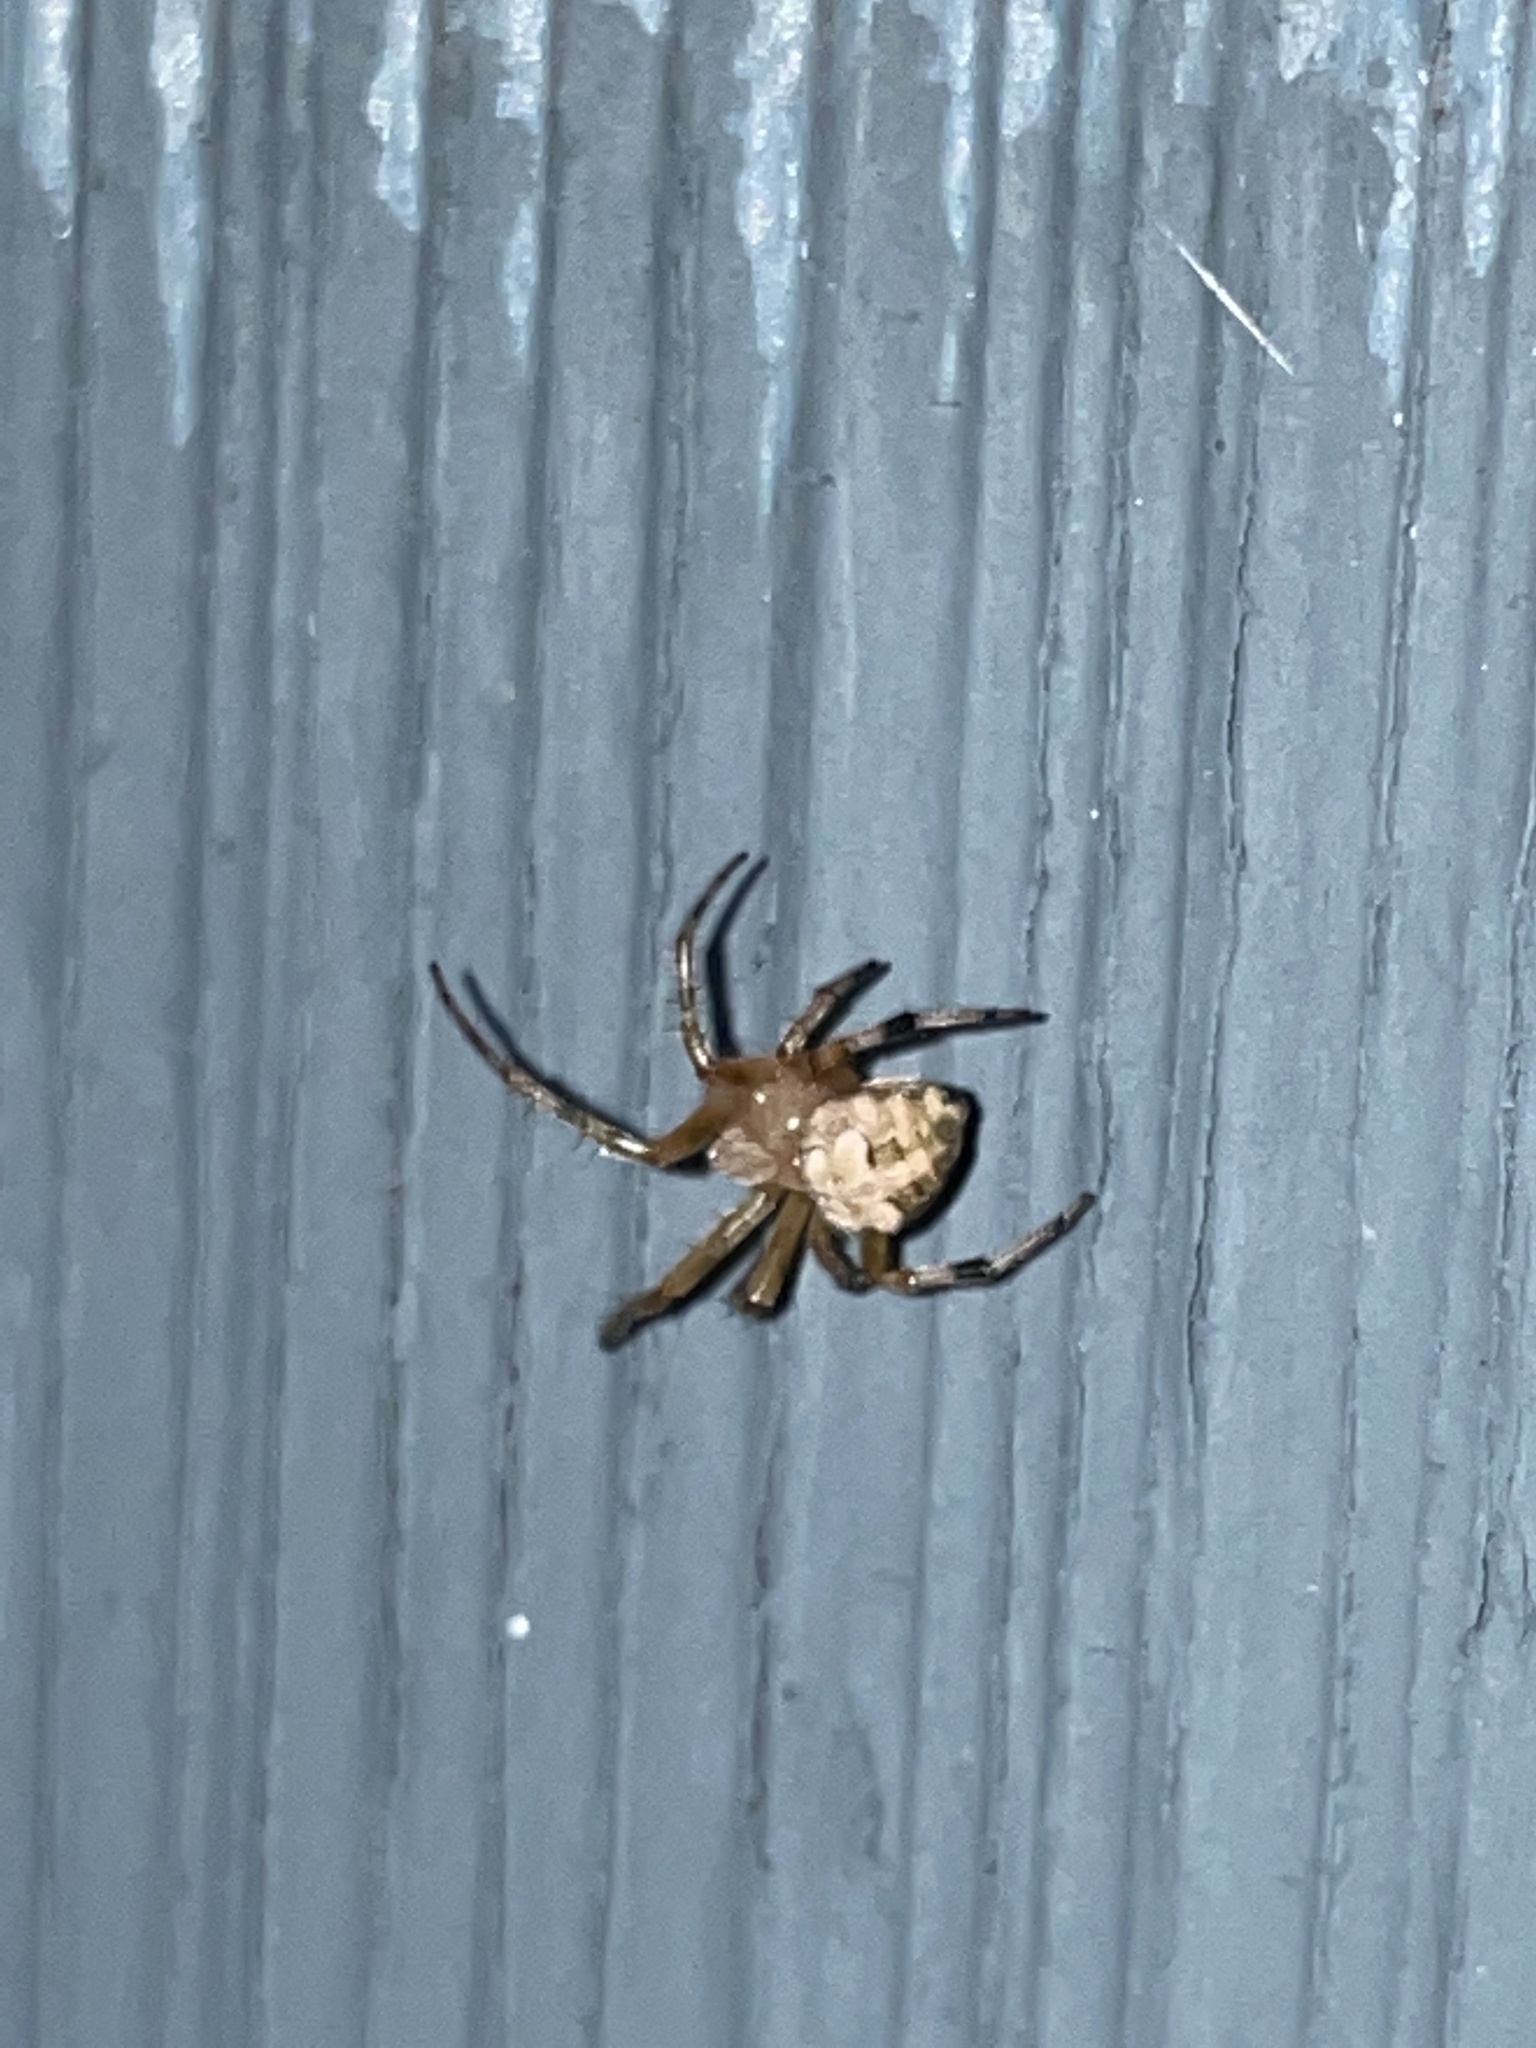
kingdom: Animalia
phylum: Arthropoda
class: Arachnida
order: Araneae
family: Araneidae
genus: Araneus
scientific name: Araneus pegnia
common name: Orb weavers
